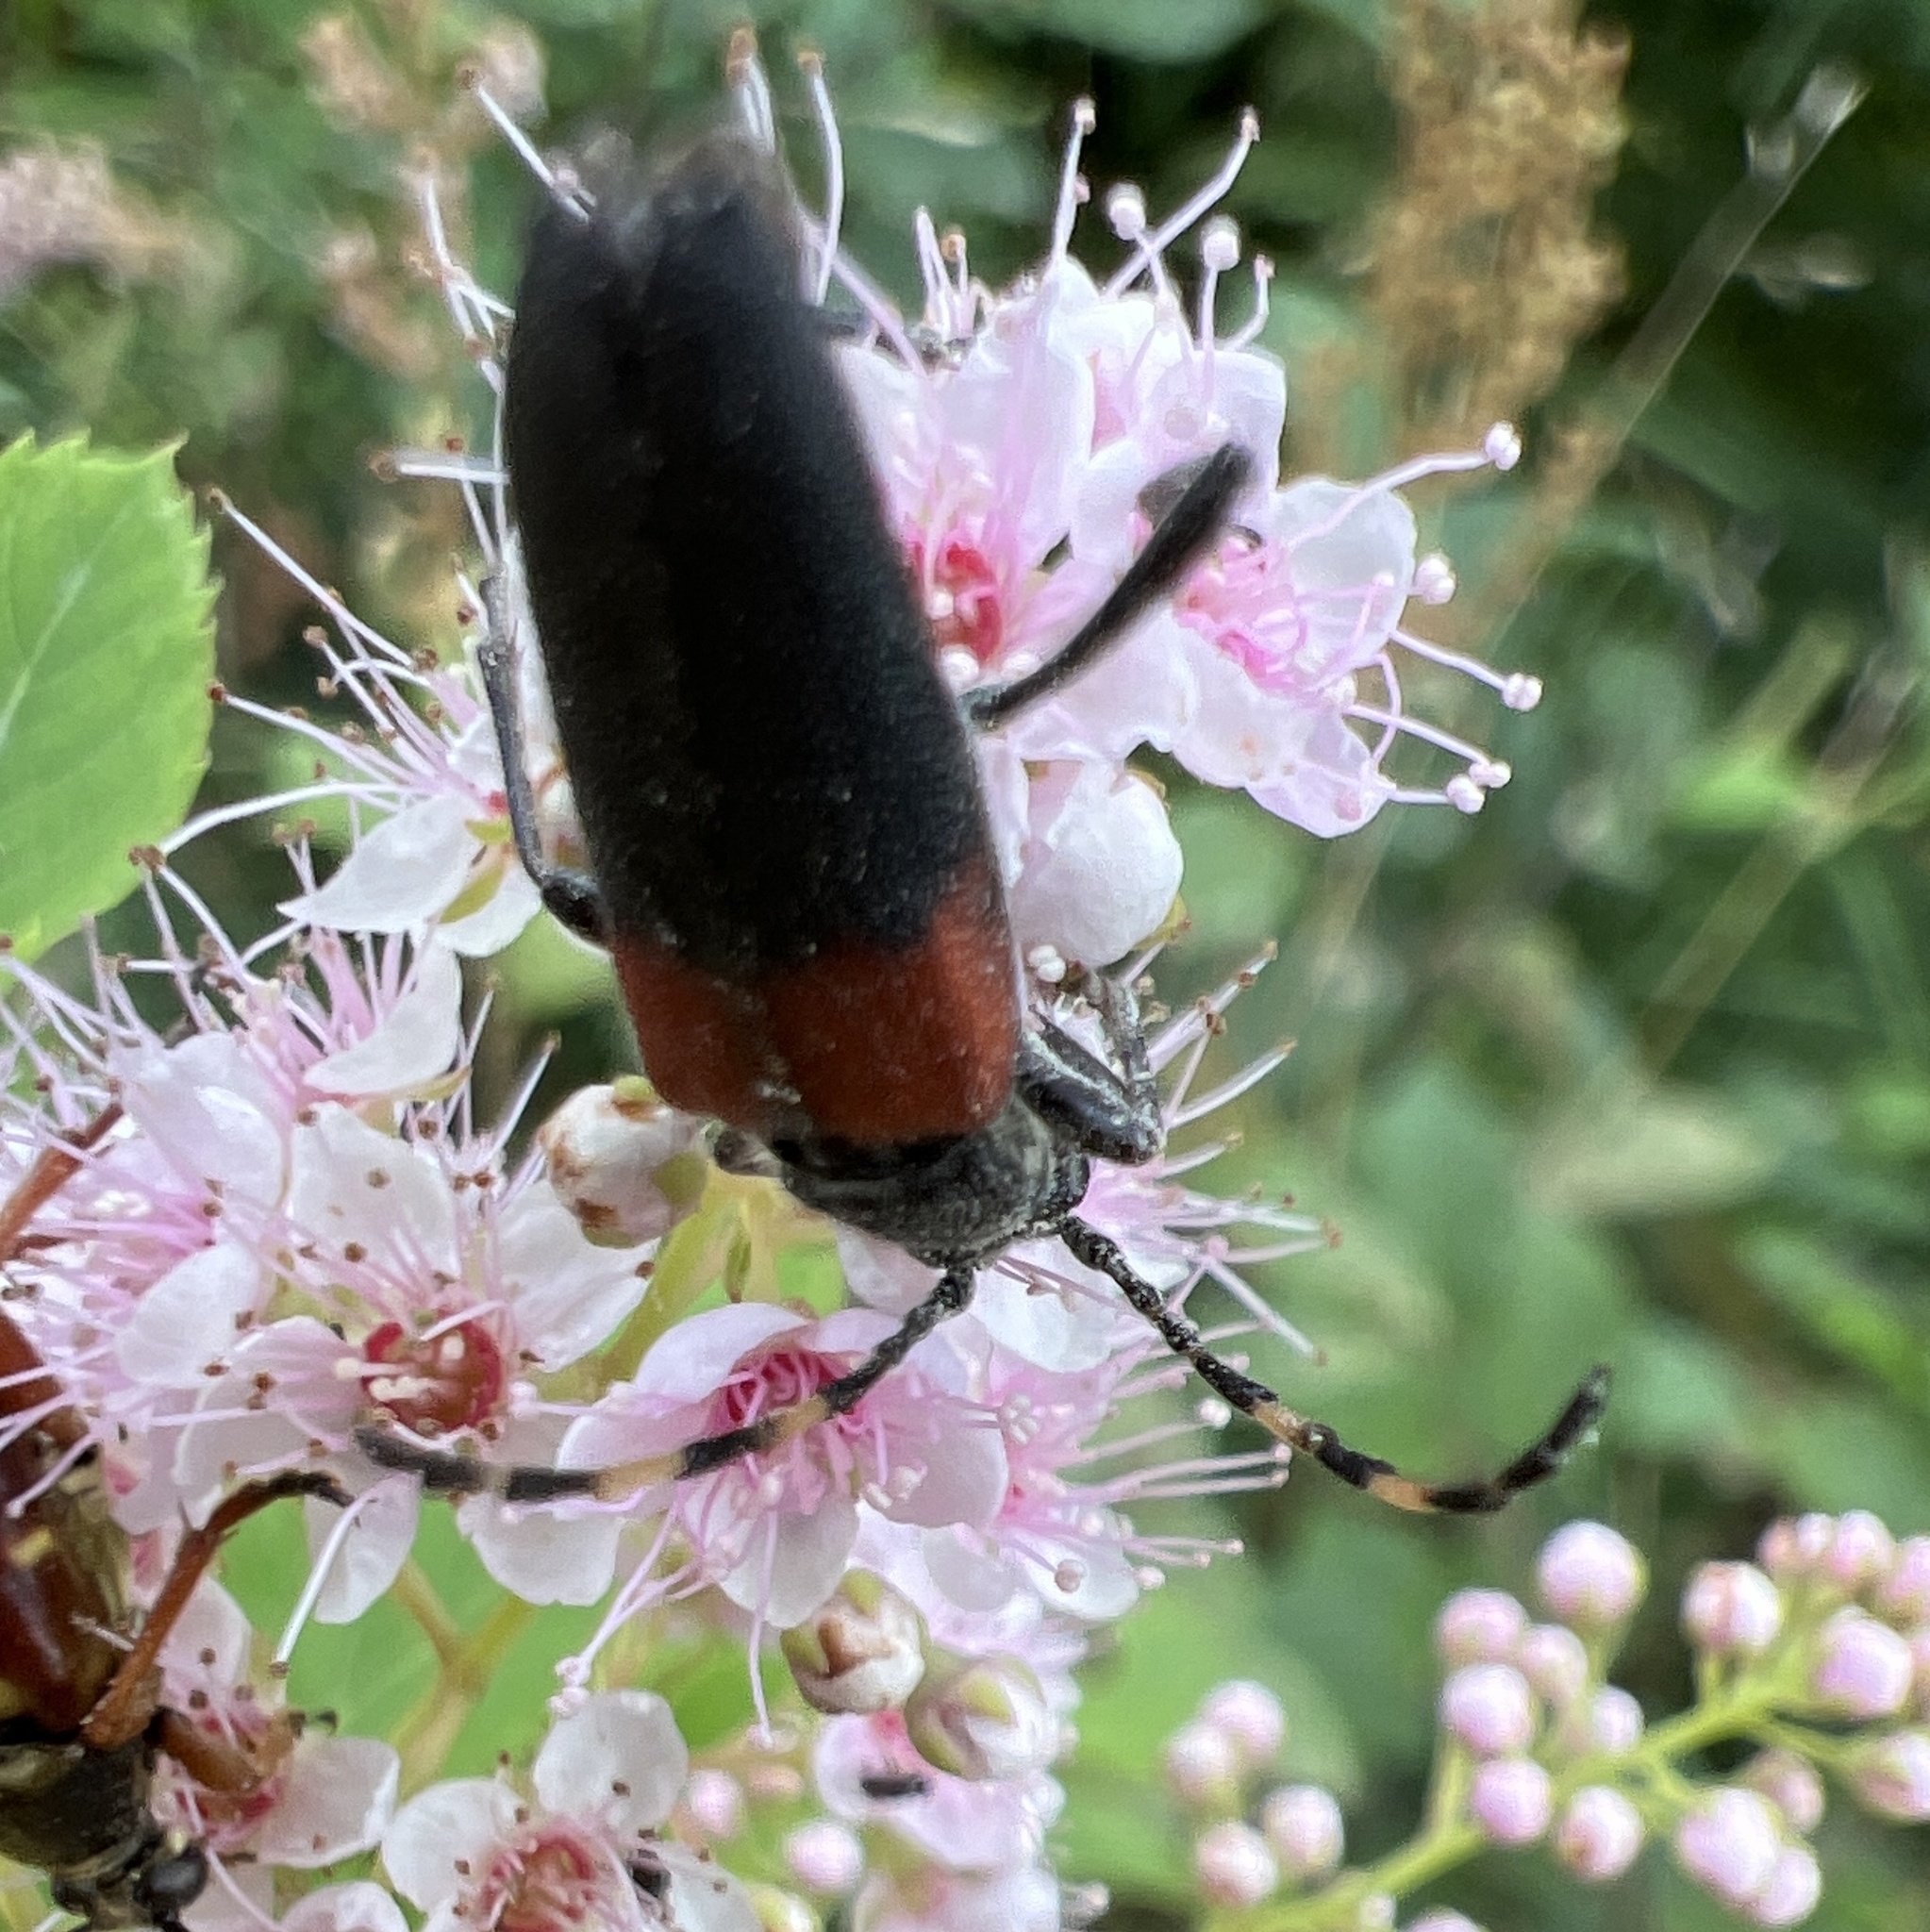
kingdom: Animalia
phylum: Arthropoda
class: Insecta
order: Coleoptera
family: Cerambycidae
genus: Stictoleptura
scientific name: Stictoleptura canadensis
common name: Red-shouldered pine borer
